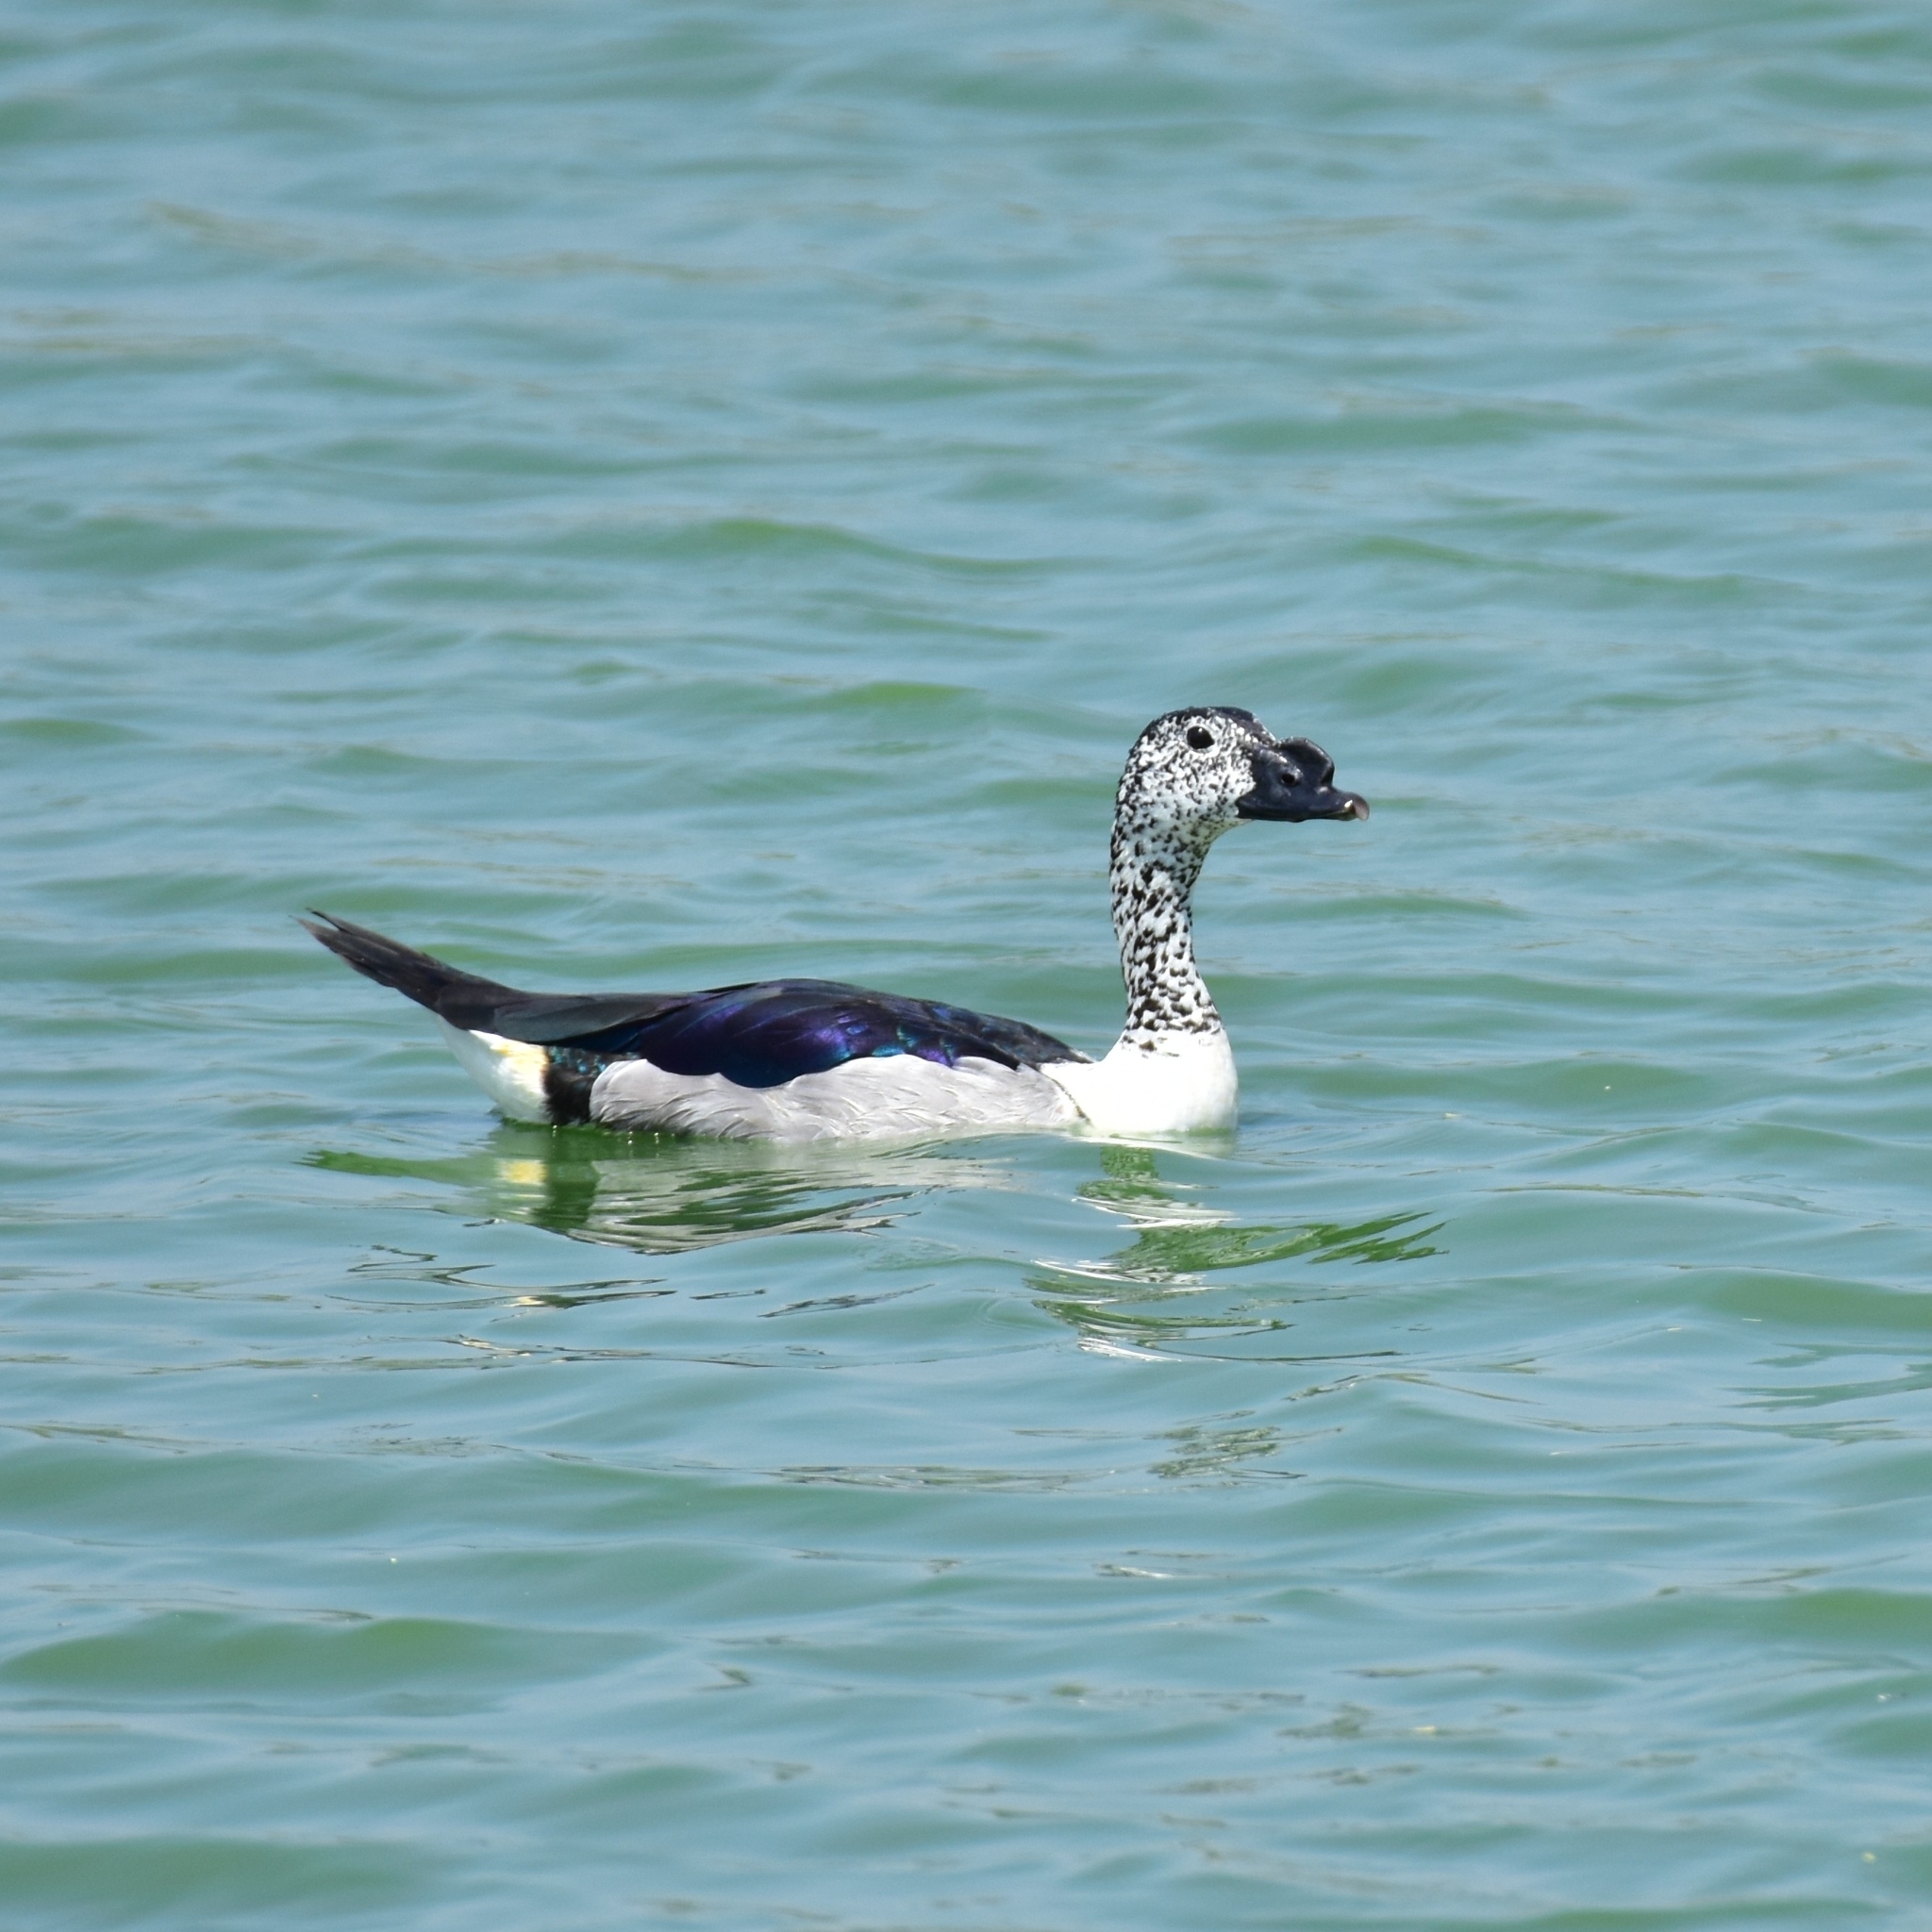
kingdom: Animalia
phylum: Chordata
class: Aves
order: Anseriformes
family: Anatidae
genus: Sarkidiornis
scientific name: Sarkidiornis melanotos
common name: Comb duck
